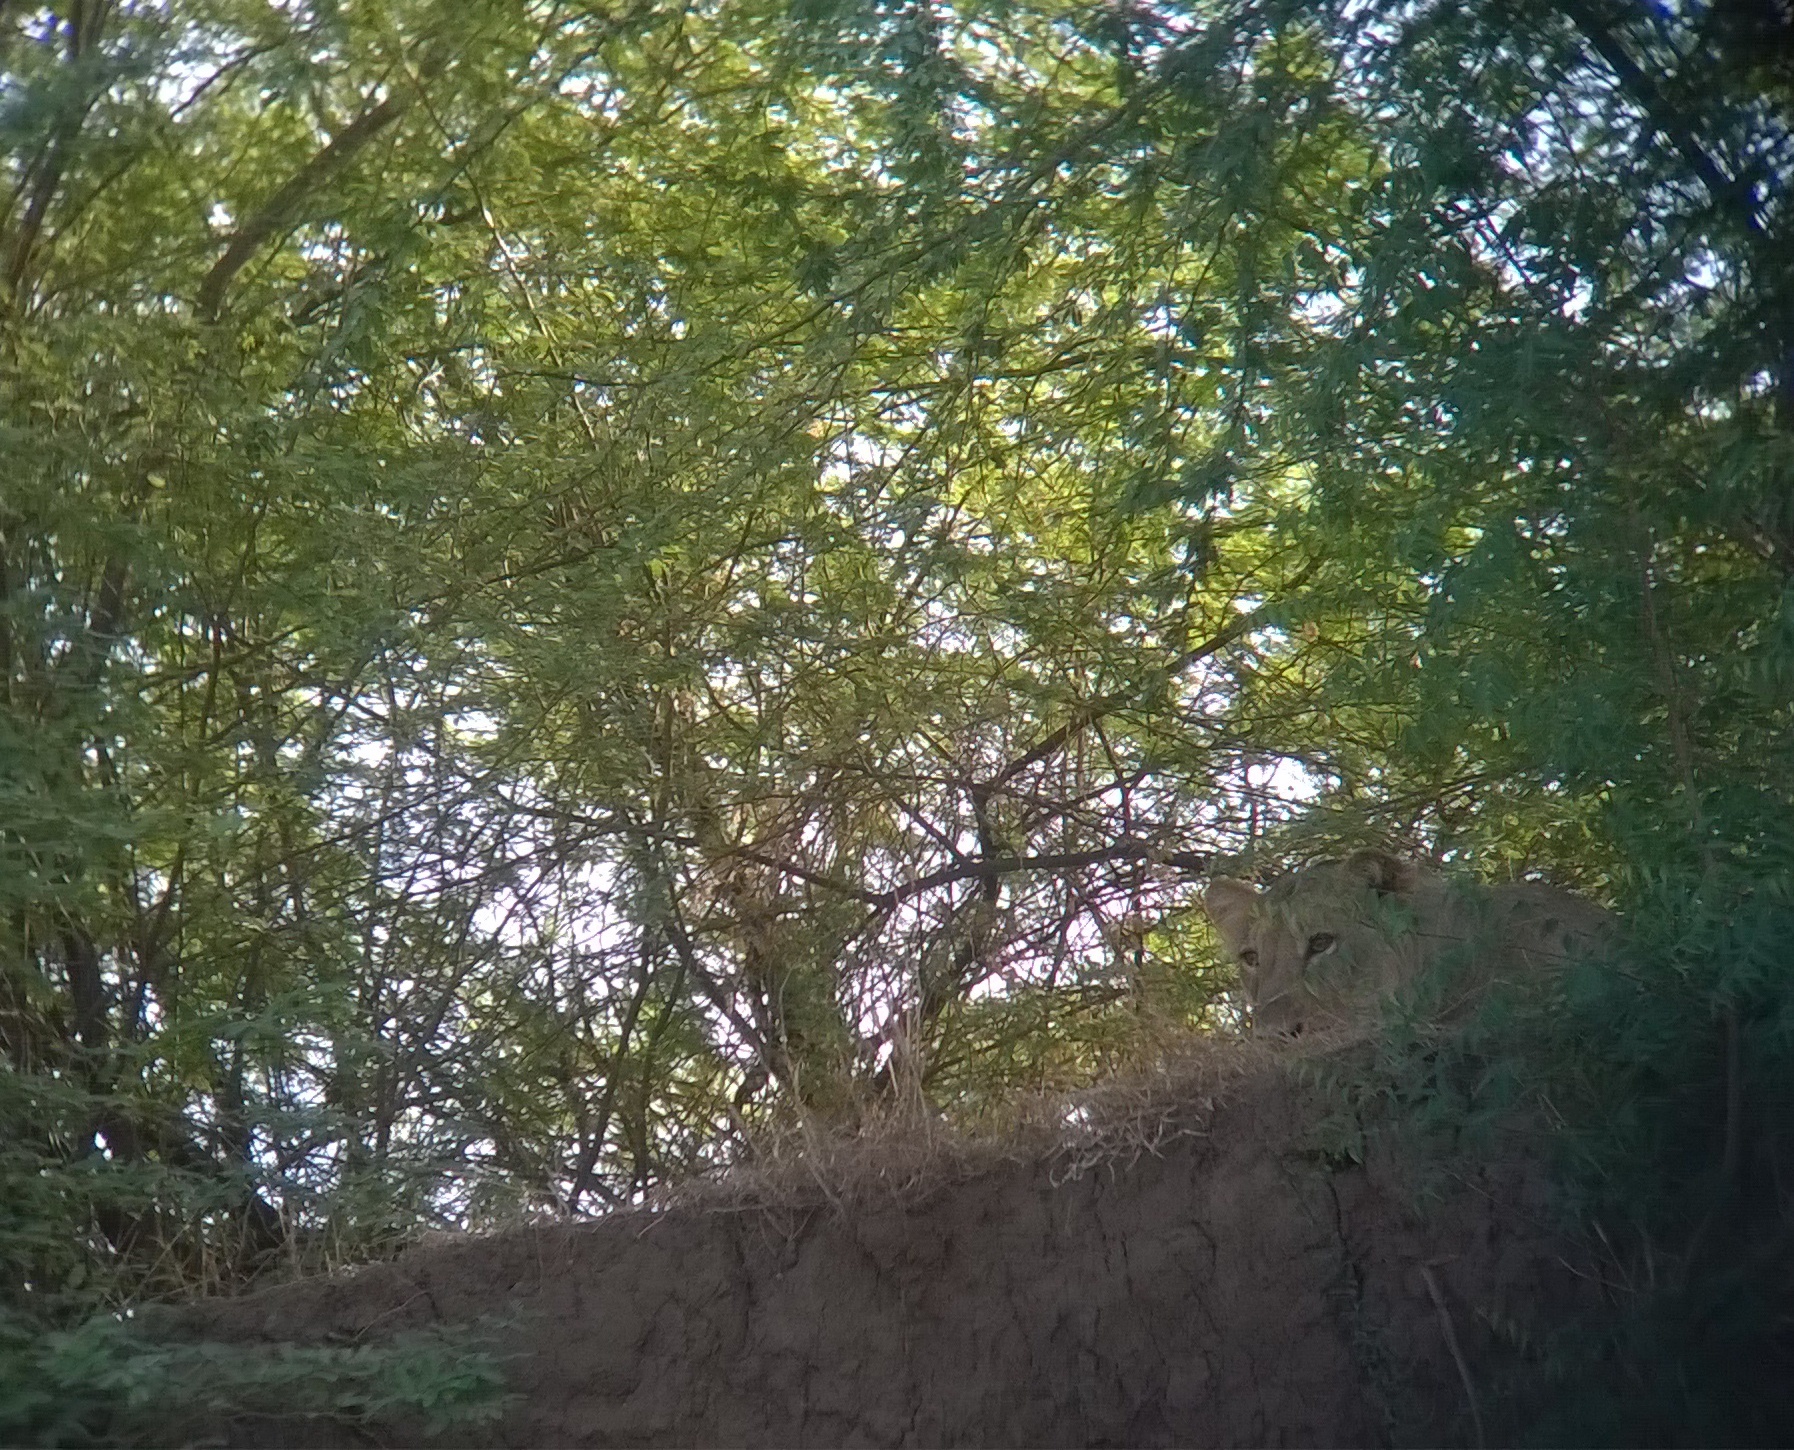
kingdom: Animalia
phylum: Chordata
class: Mammalia
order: Carnivora
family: Felidae
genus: Panthera
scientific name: Panthera leo
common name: Lion
